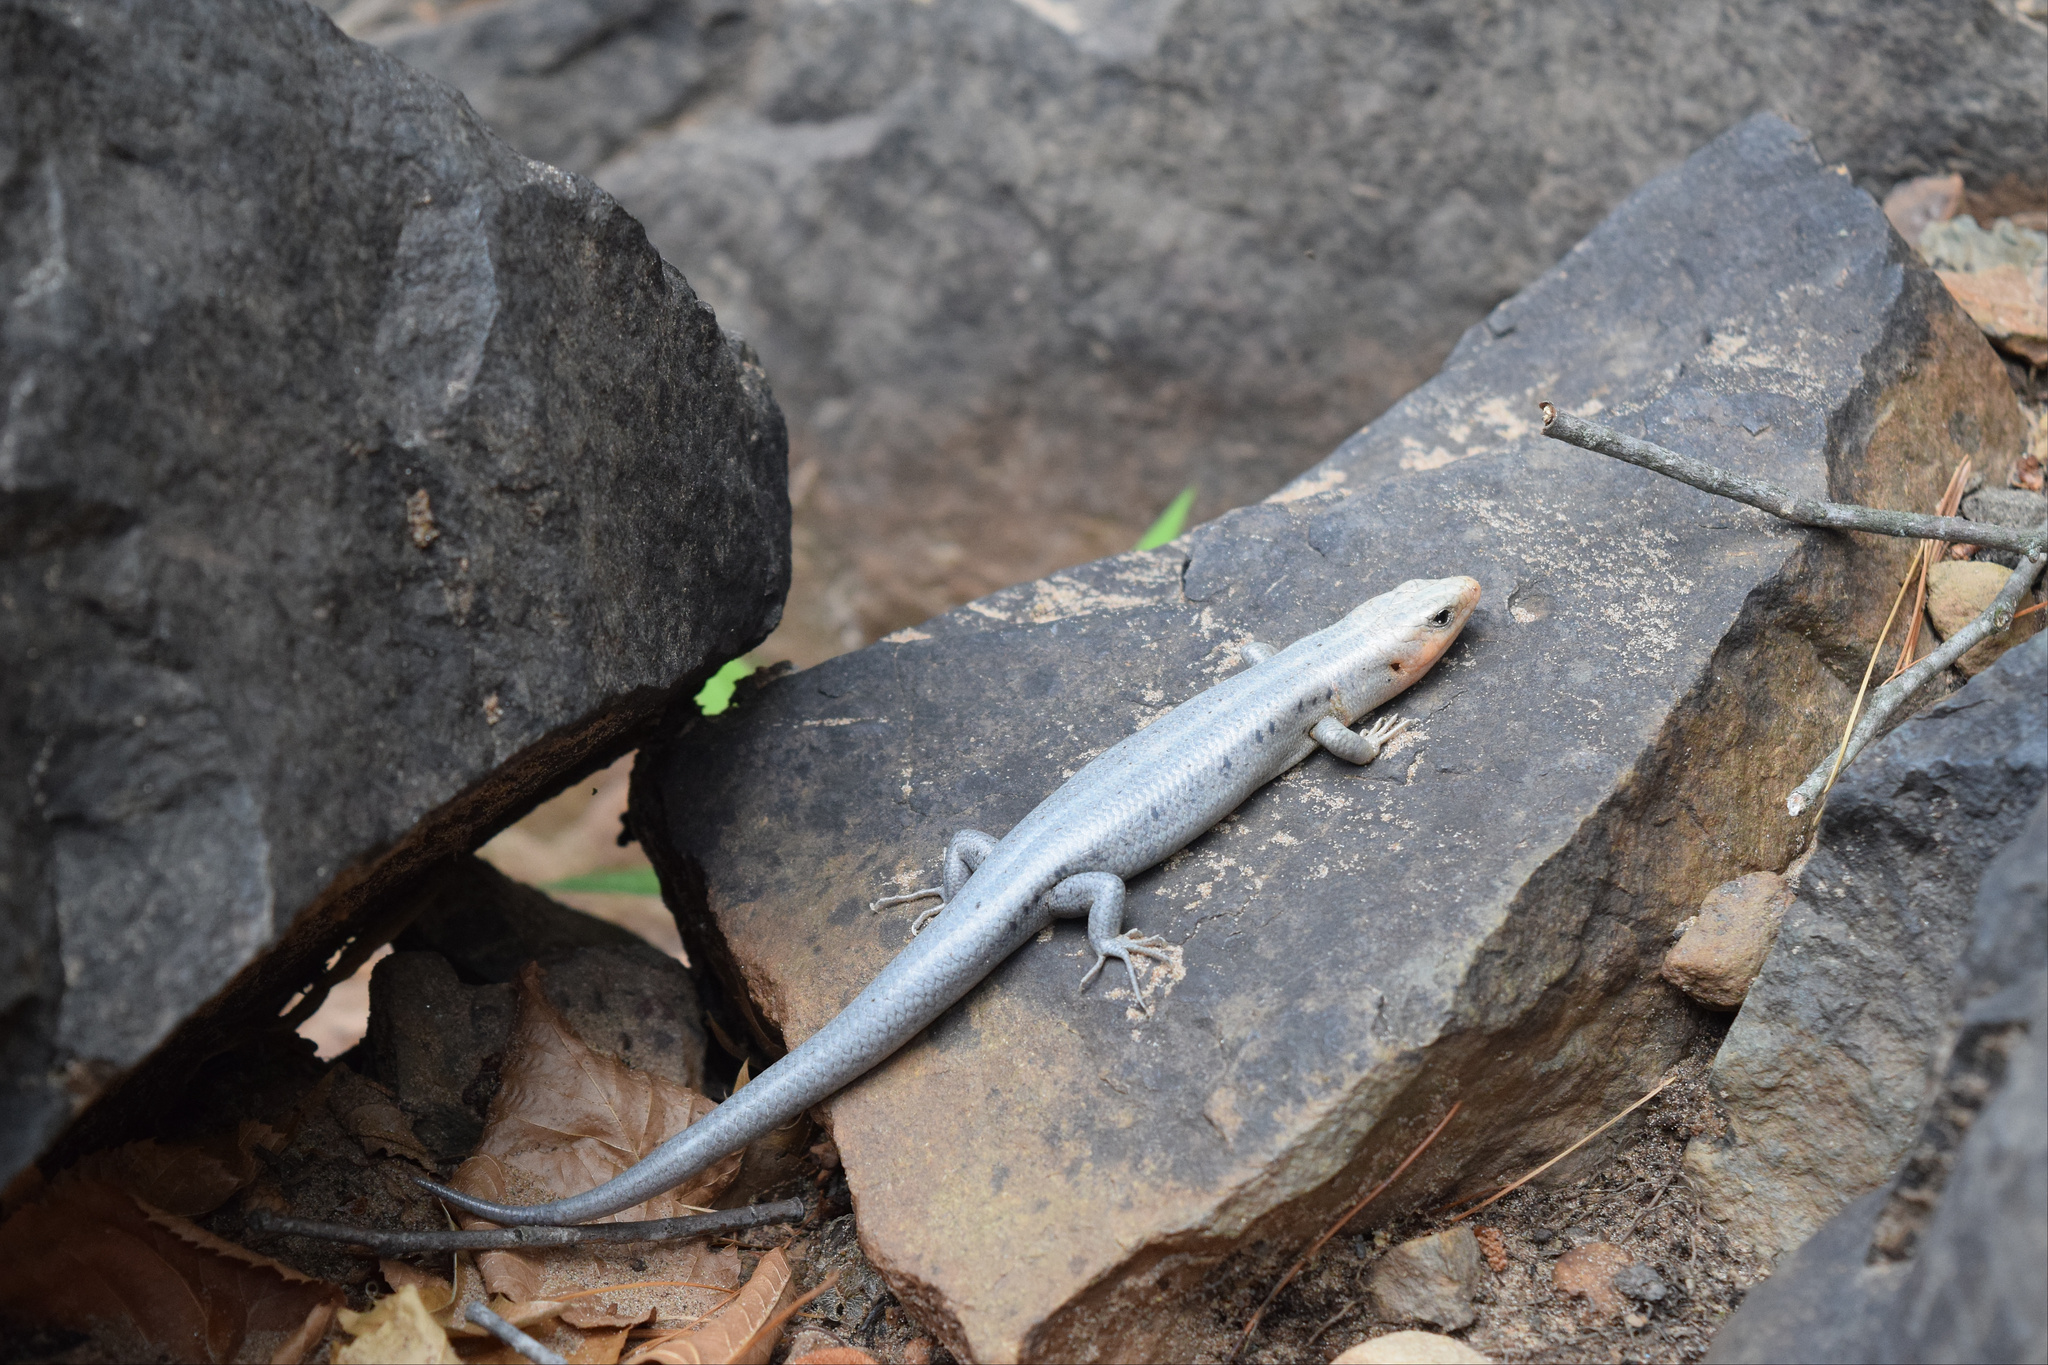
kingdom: Animalia
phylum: Chordata
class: Squamata
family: Scincidae
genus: Plestiodon
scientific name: Plestiodon fasciatus
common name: Five-lined skink
